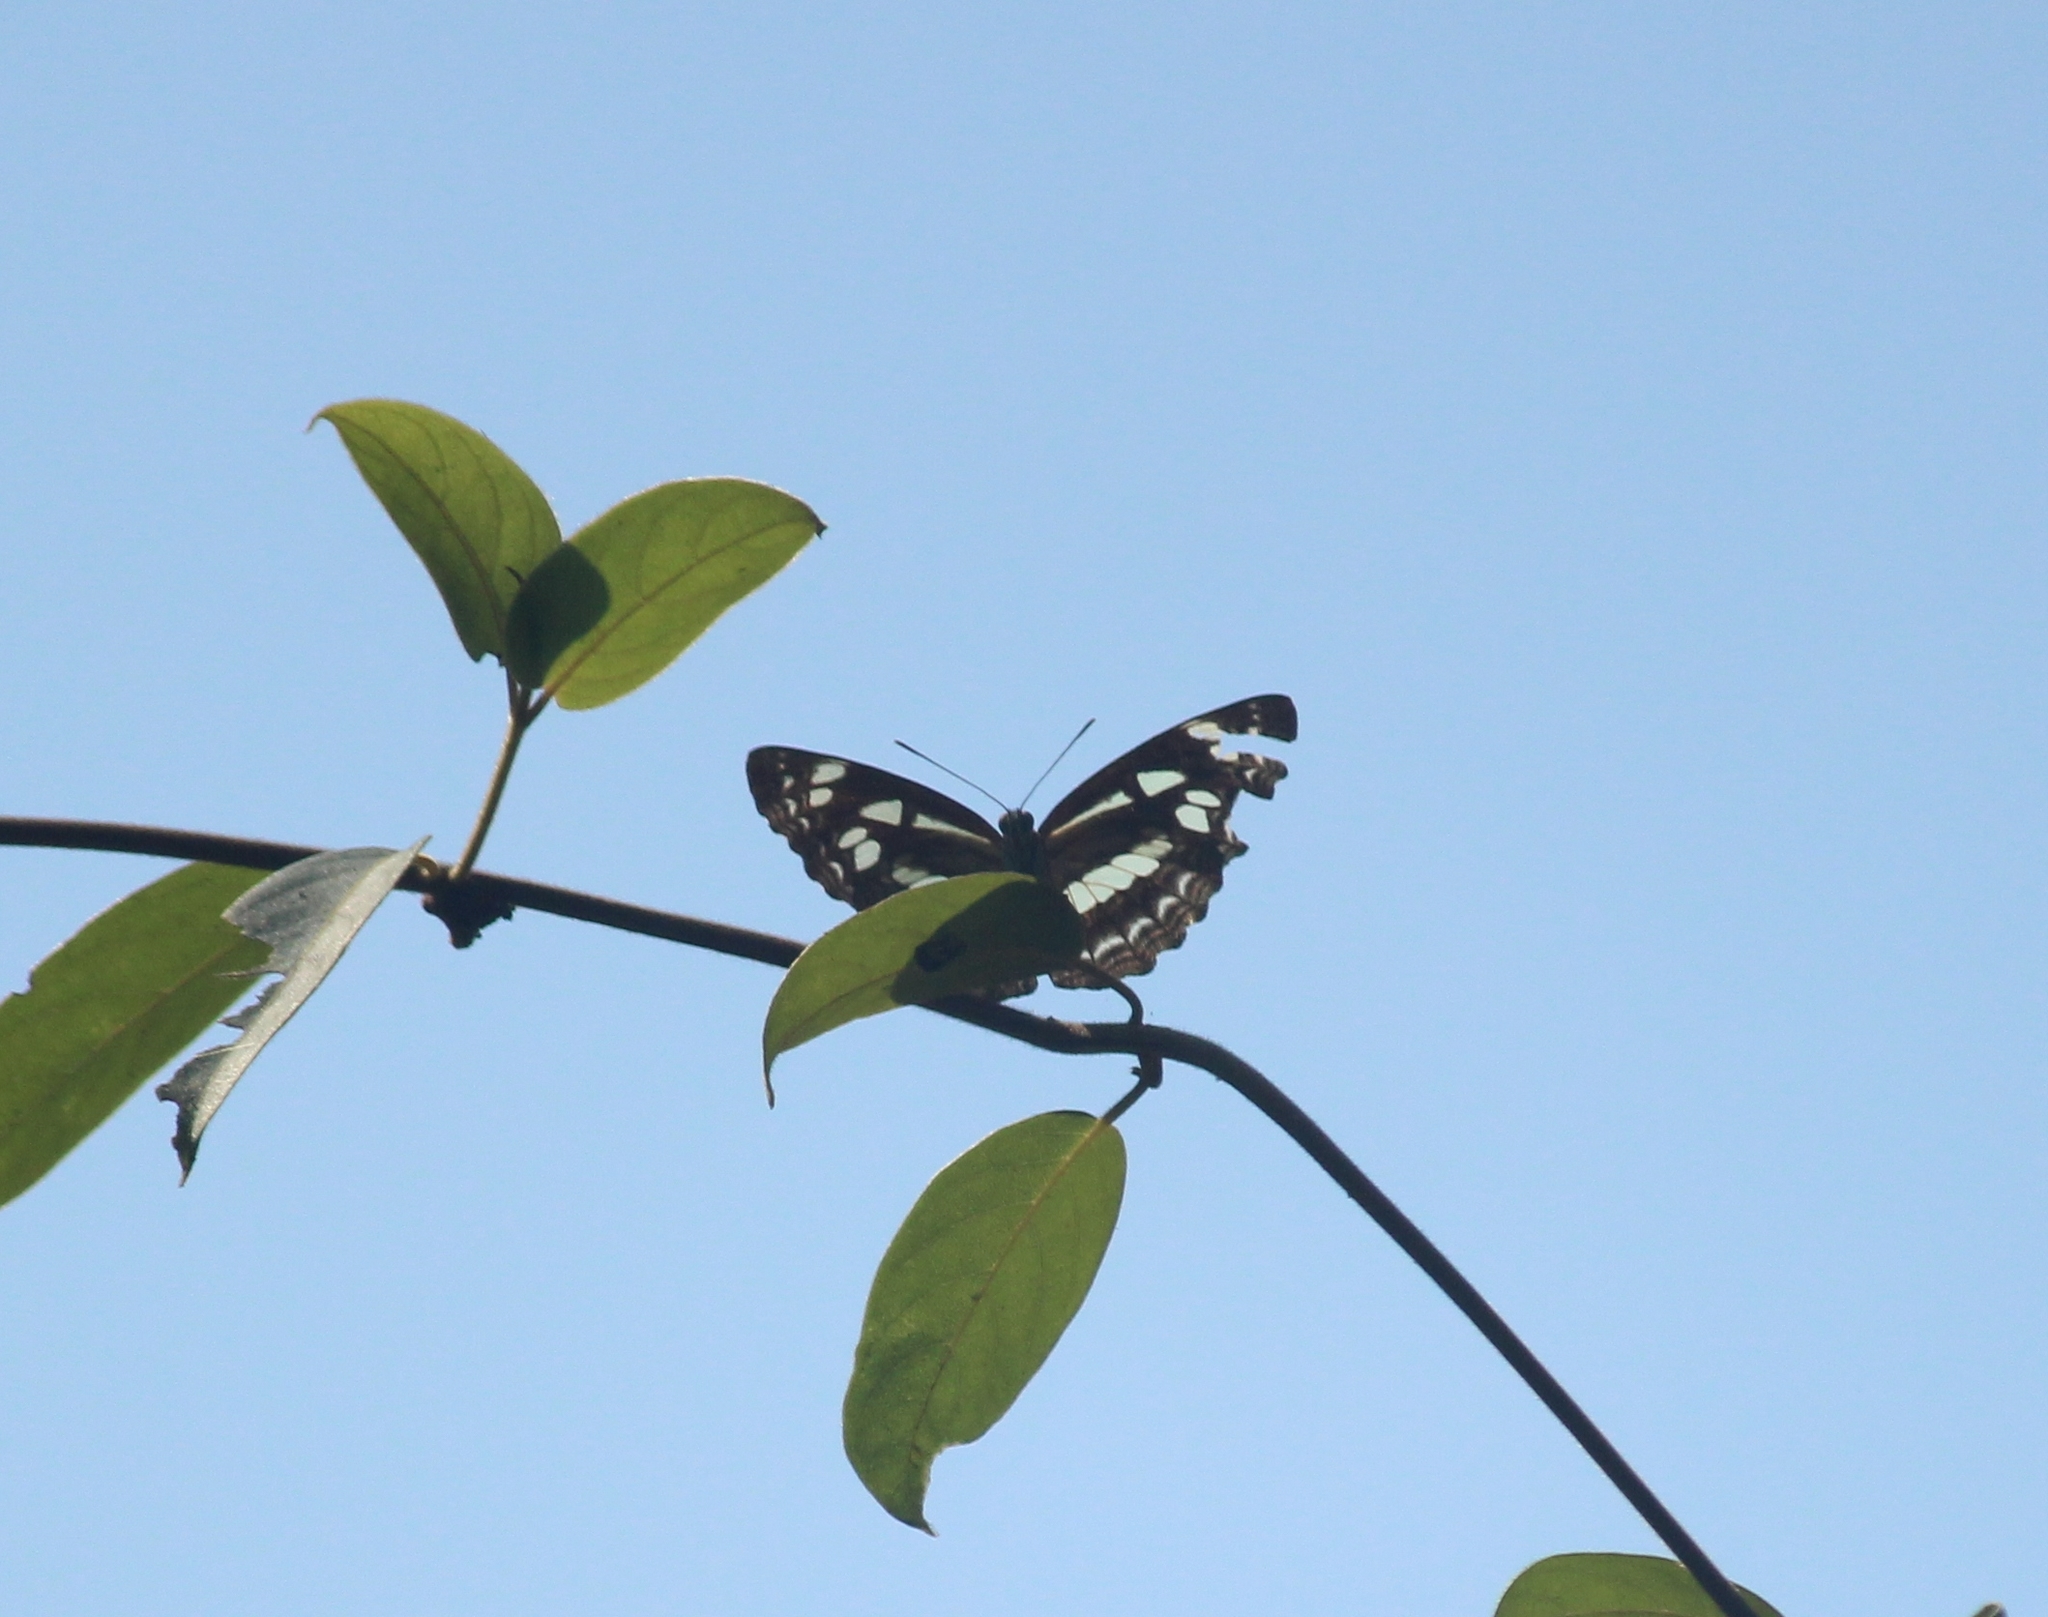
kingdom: Animalia
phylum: Arthropoda
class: Insecta
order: Lepidoptera
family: Nymphalidae
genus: Neptis
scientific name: Neptis jumbah
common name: Chestnut-streaked sailer
